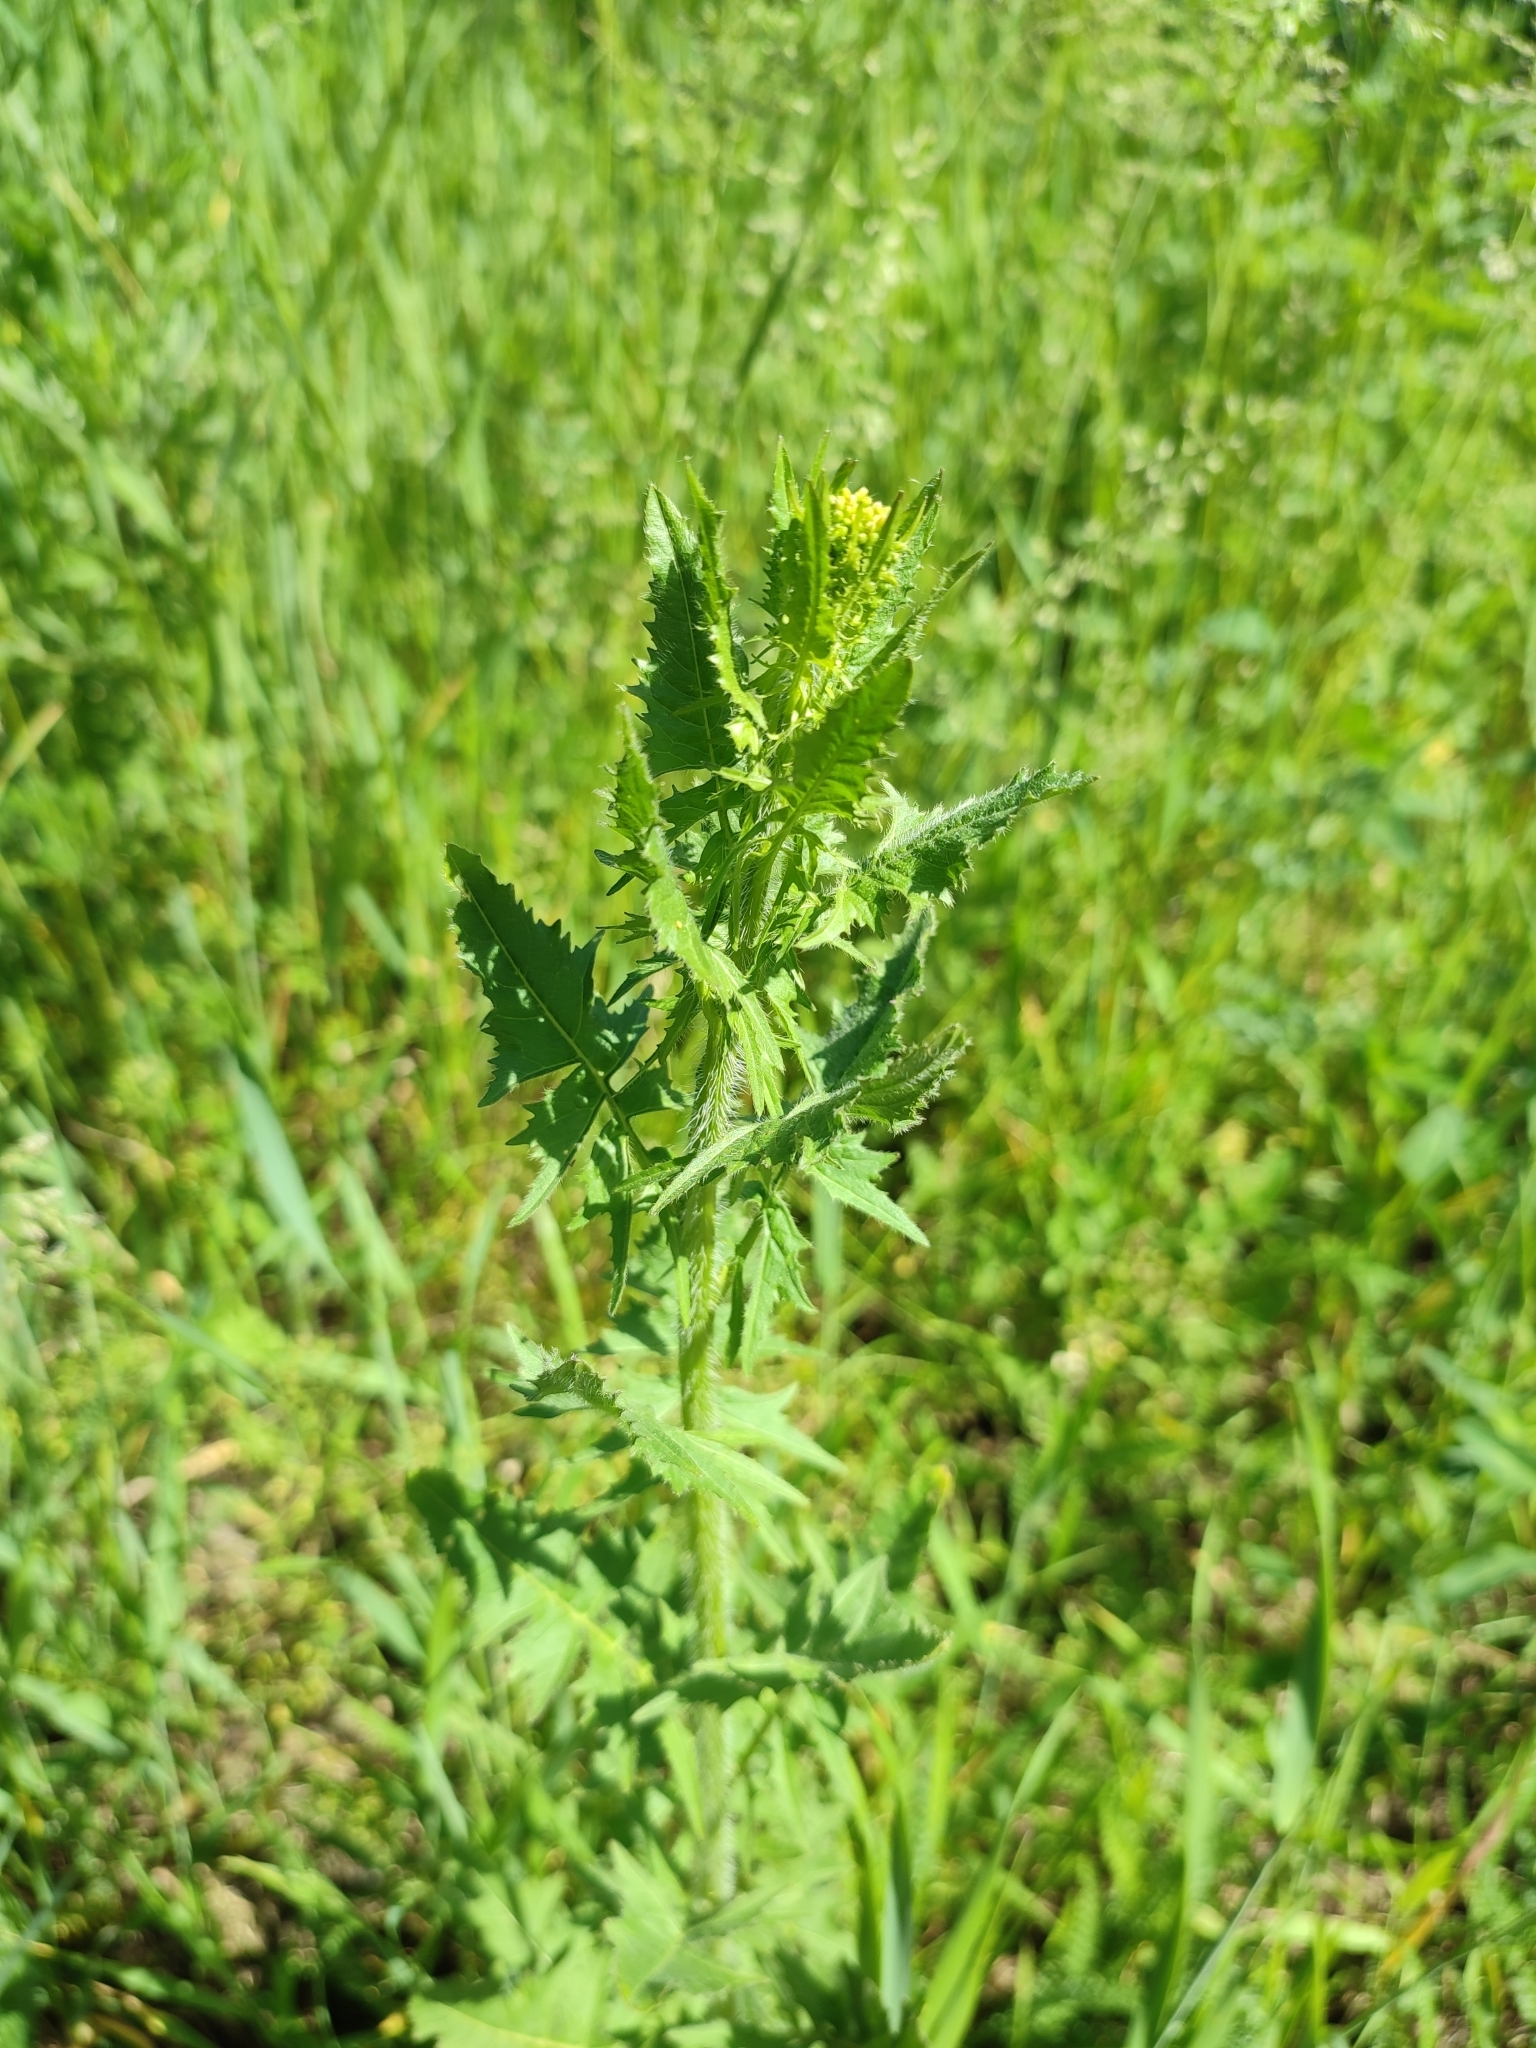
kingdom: Plantae
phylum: Tracheophyta
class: Magnoliopsida
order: Brassicales
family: Brassicaceae
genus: Sisymbrium
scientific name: Sisymbrium loeselii
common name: False london-rocket
